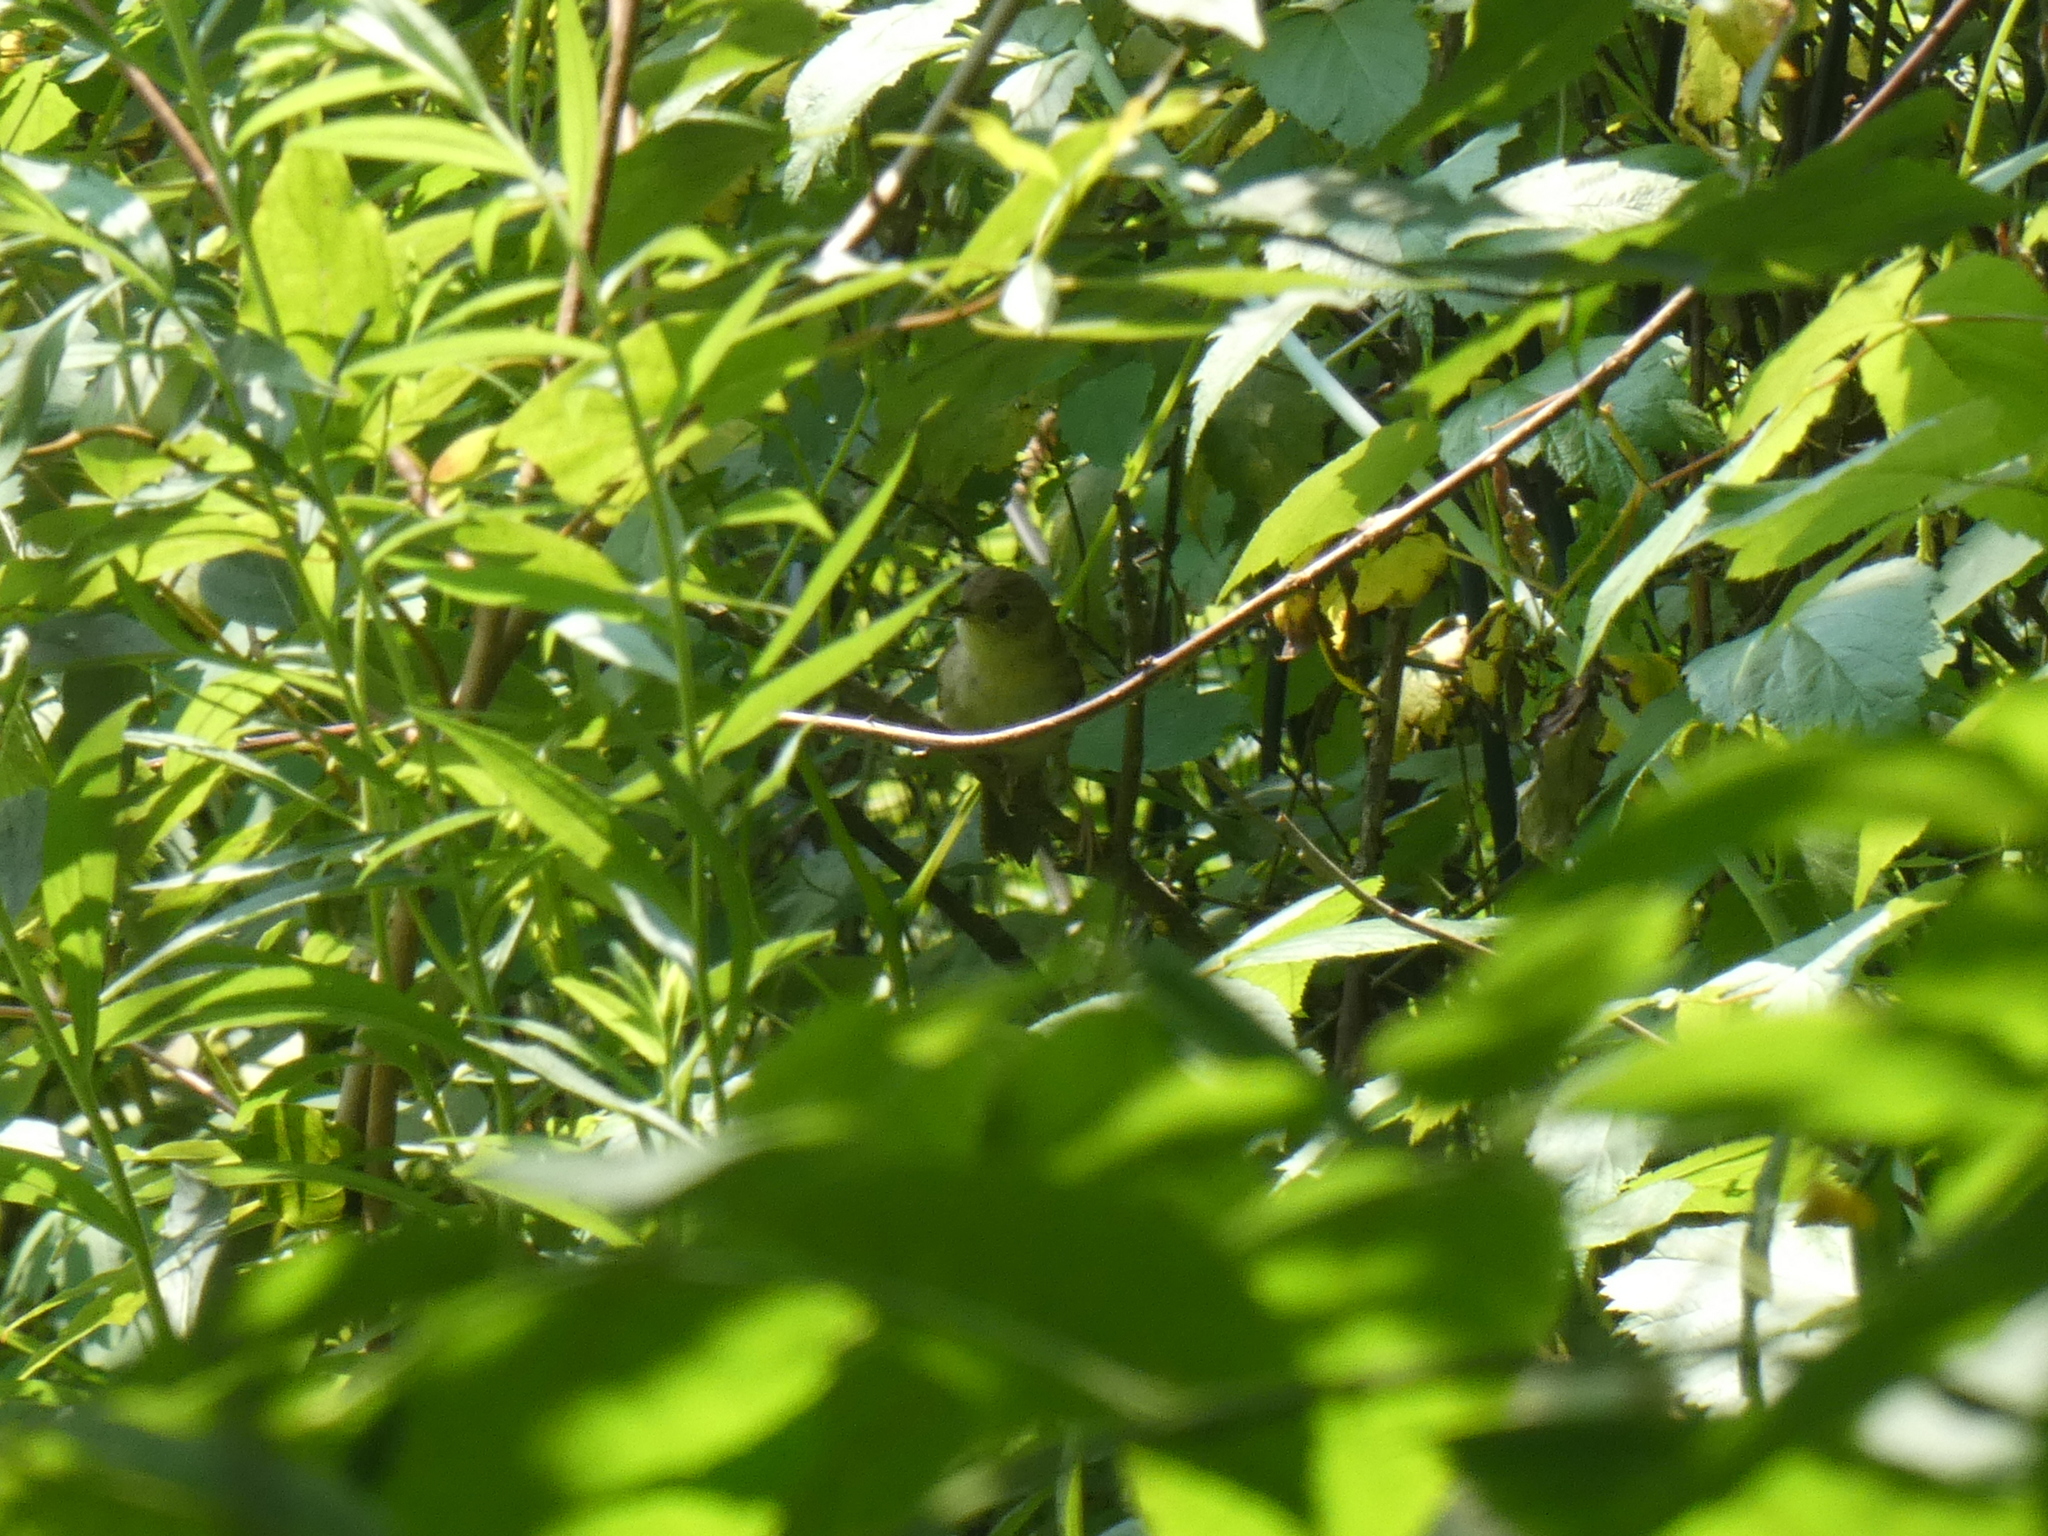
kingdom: Animalia
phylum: Chordata
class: Aves
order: Passeriformes
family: Parulidae
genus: Geothlypis
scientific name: Geothlypis trichas
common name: Common yellowthroat
